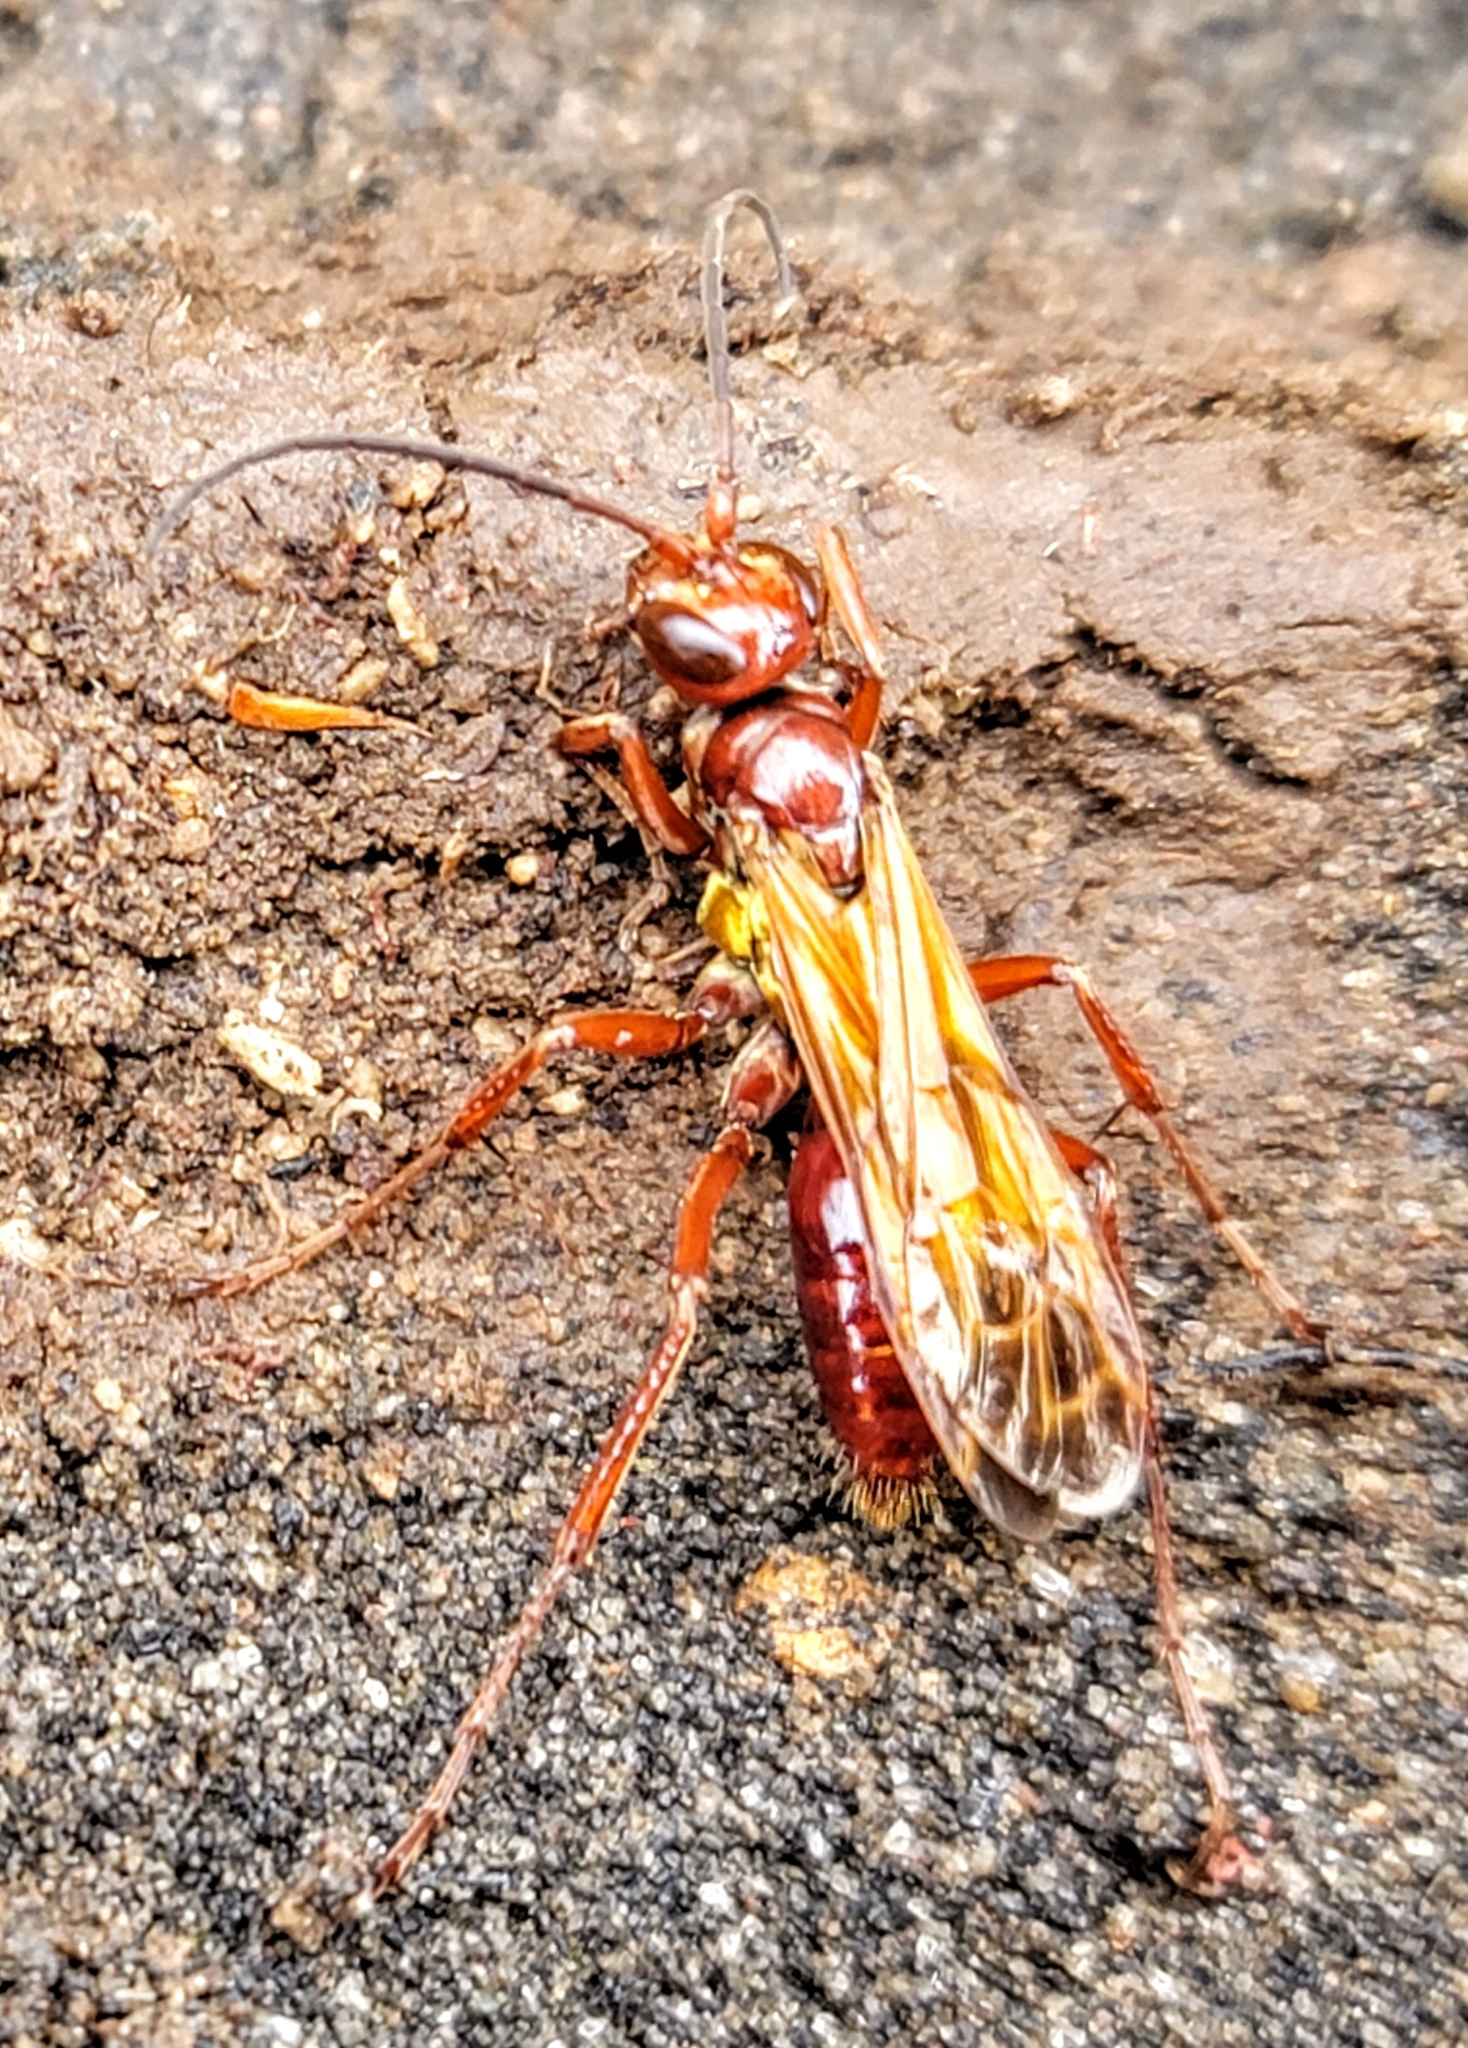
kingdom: Animalia
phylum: Arthropoda
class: Insecta
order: Hymenoptera
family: Pompilidae
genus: Sphictostethus
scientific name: Sphictostethus nitidus
